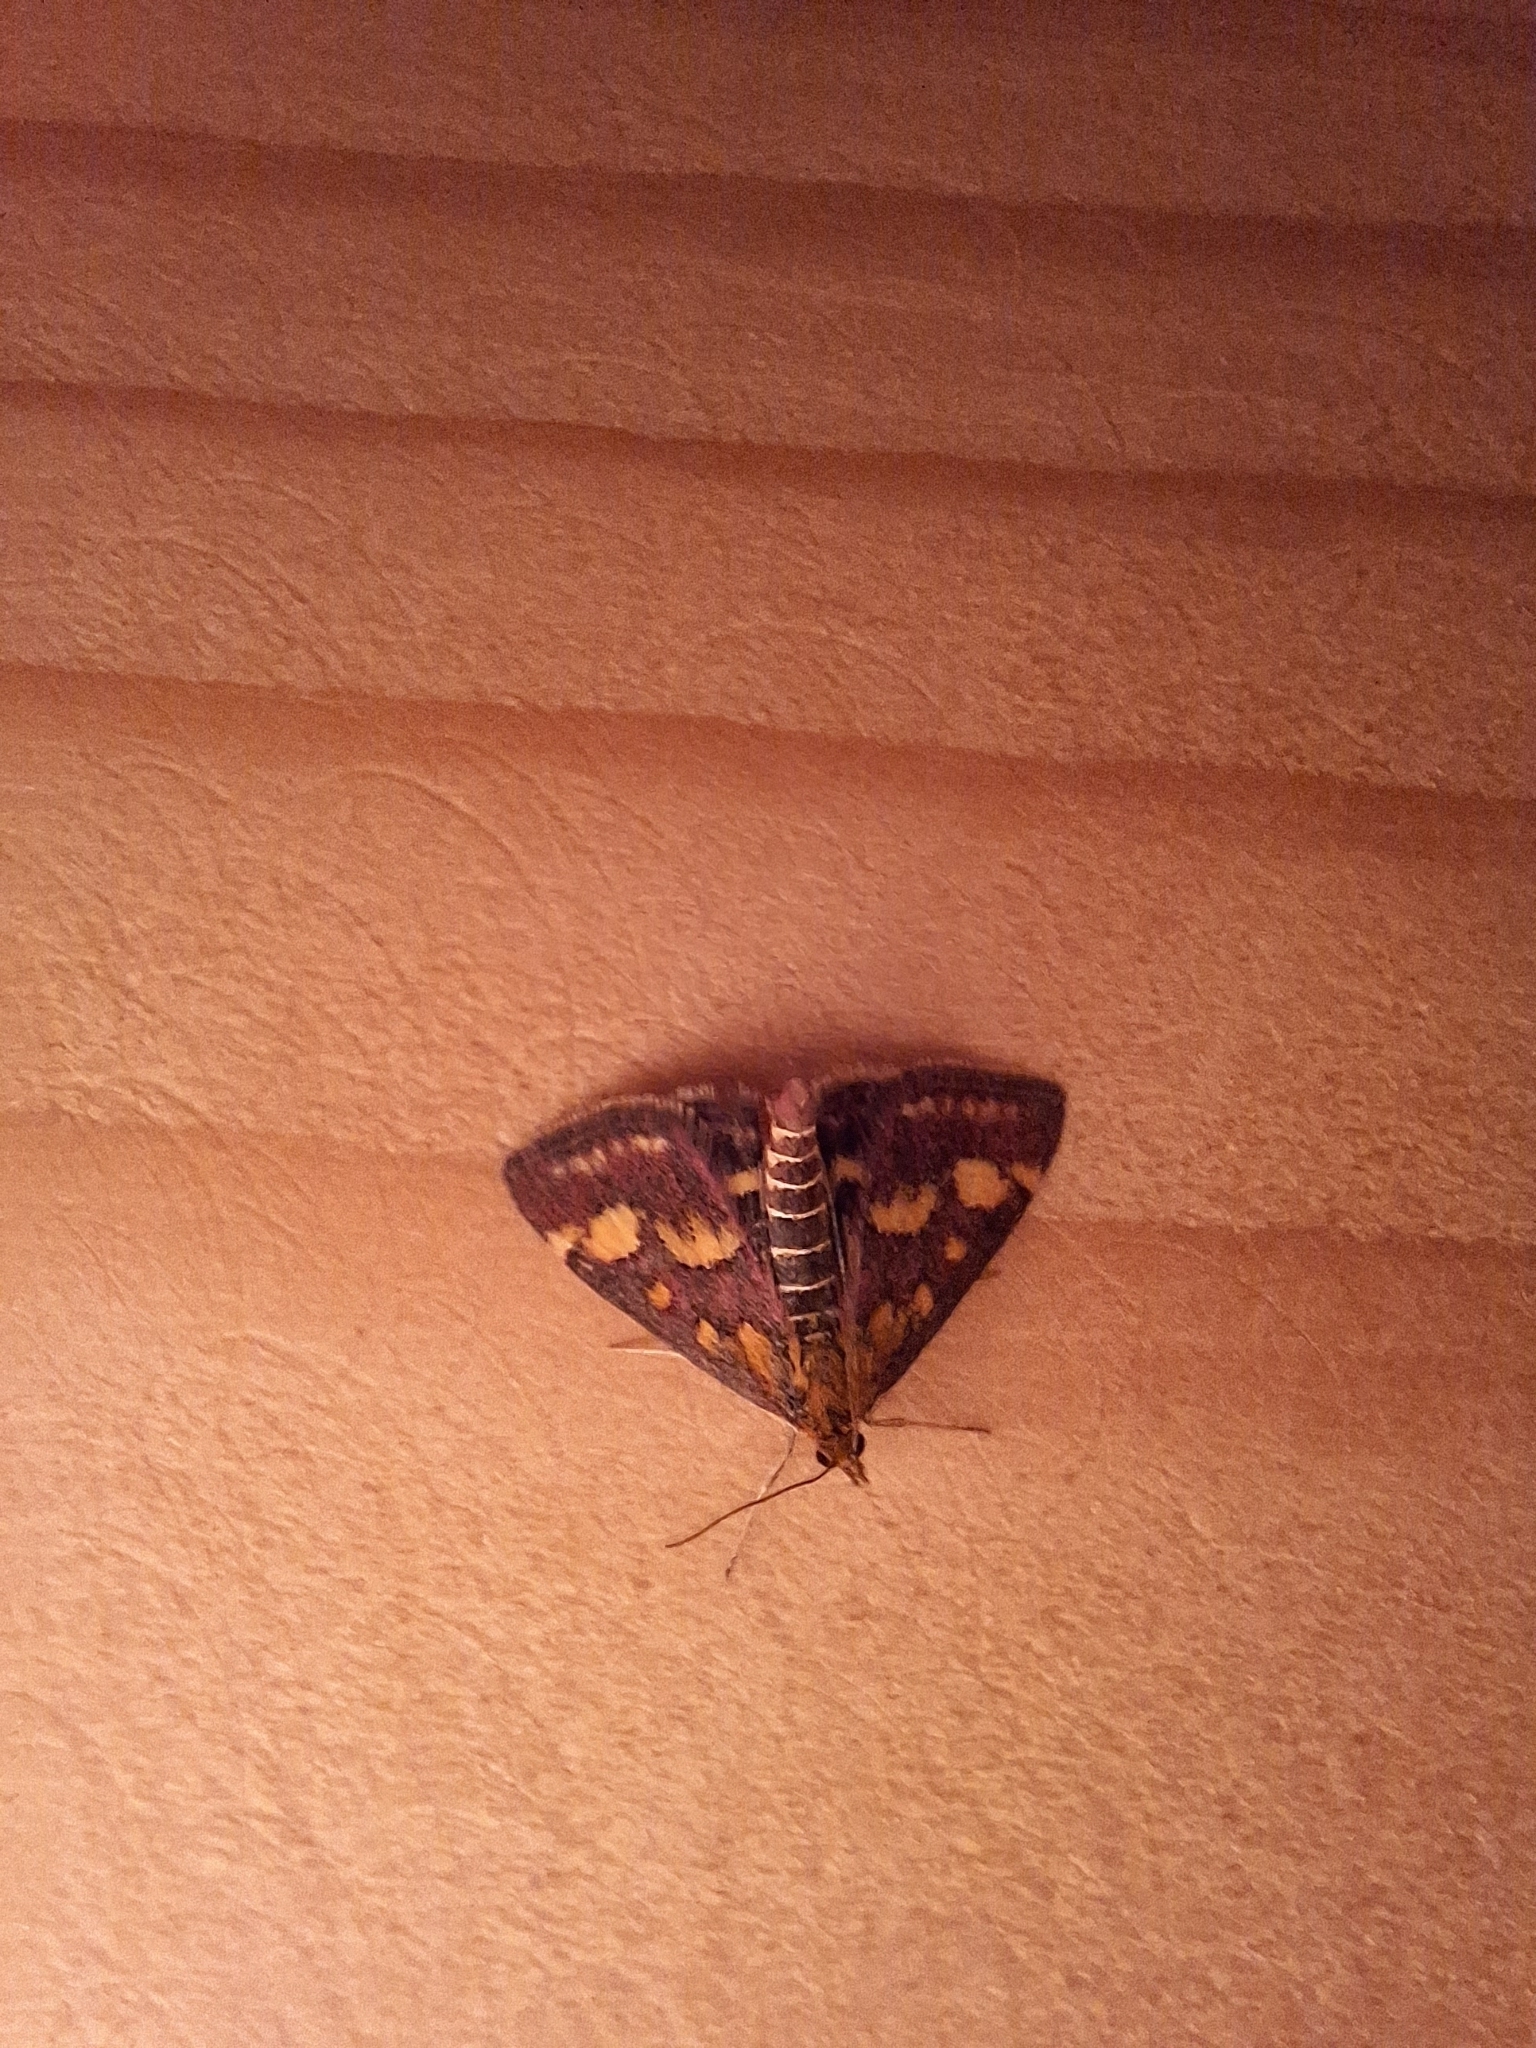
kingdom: Animalia
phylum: Arthropoda
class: Insecta
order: Lepidoptera
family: Crambidae
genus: Pyrausta
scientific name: Pyrausta purpuralis
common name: Common purple & gold
